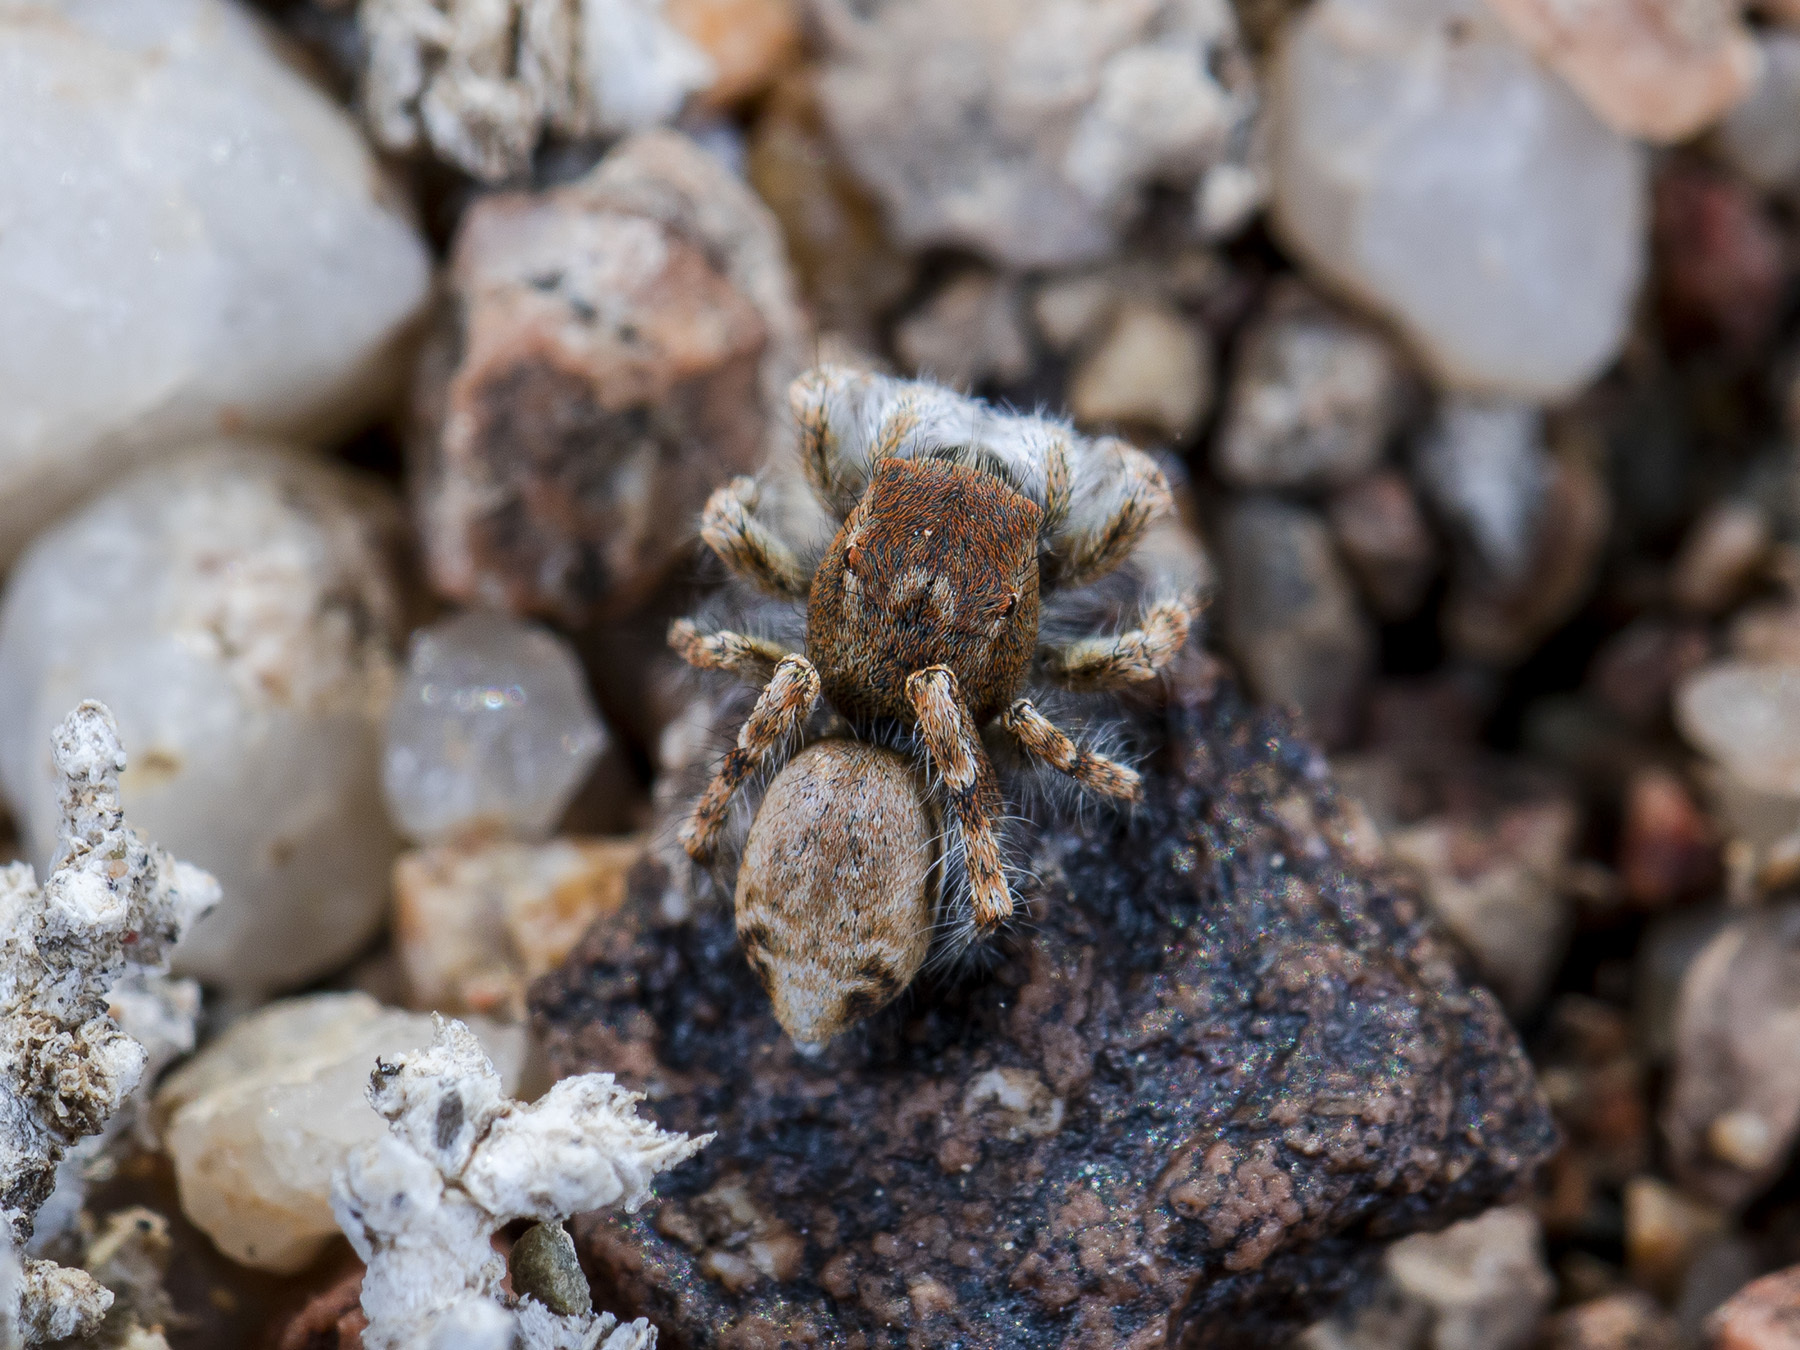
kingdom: Animalia
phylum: Arthropoda
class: Arachnida
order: Araneae
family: Salticidae
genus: Yllenus
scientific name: Yllenus zyuzini
